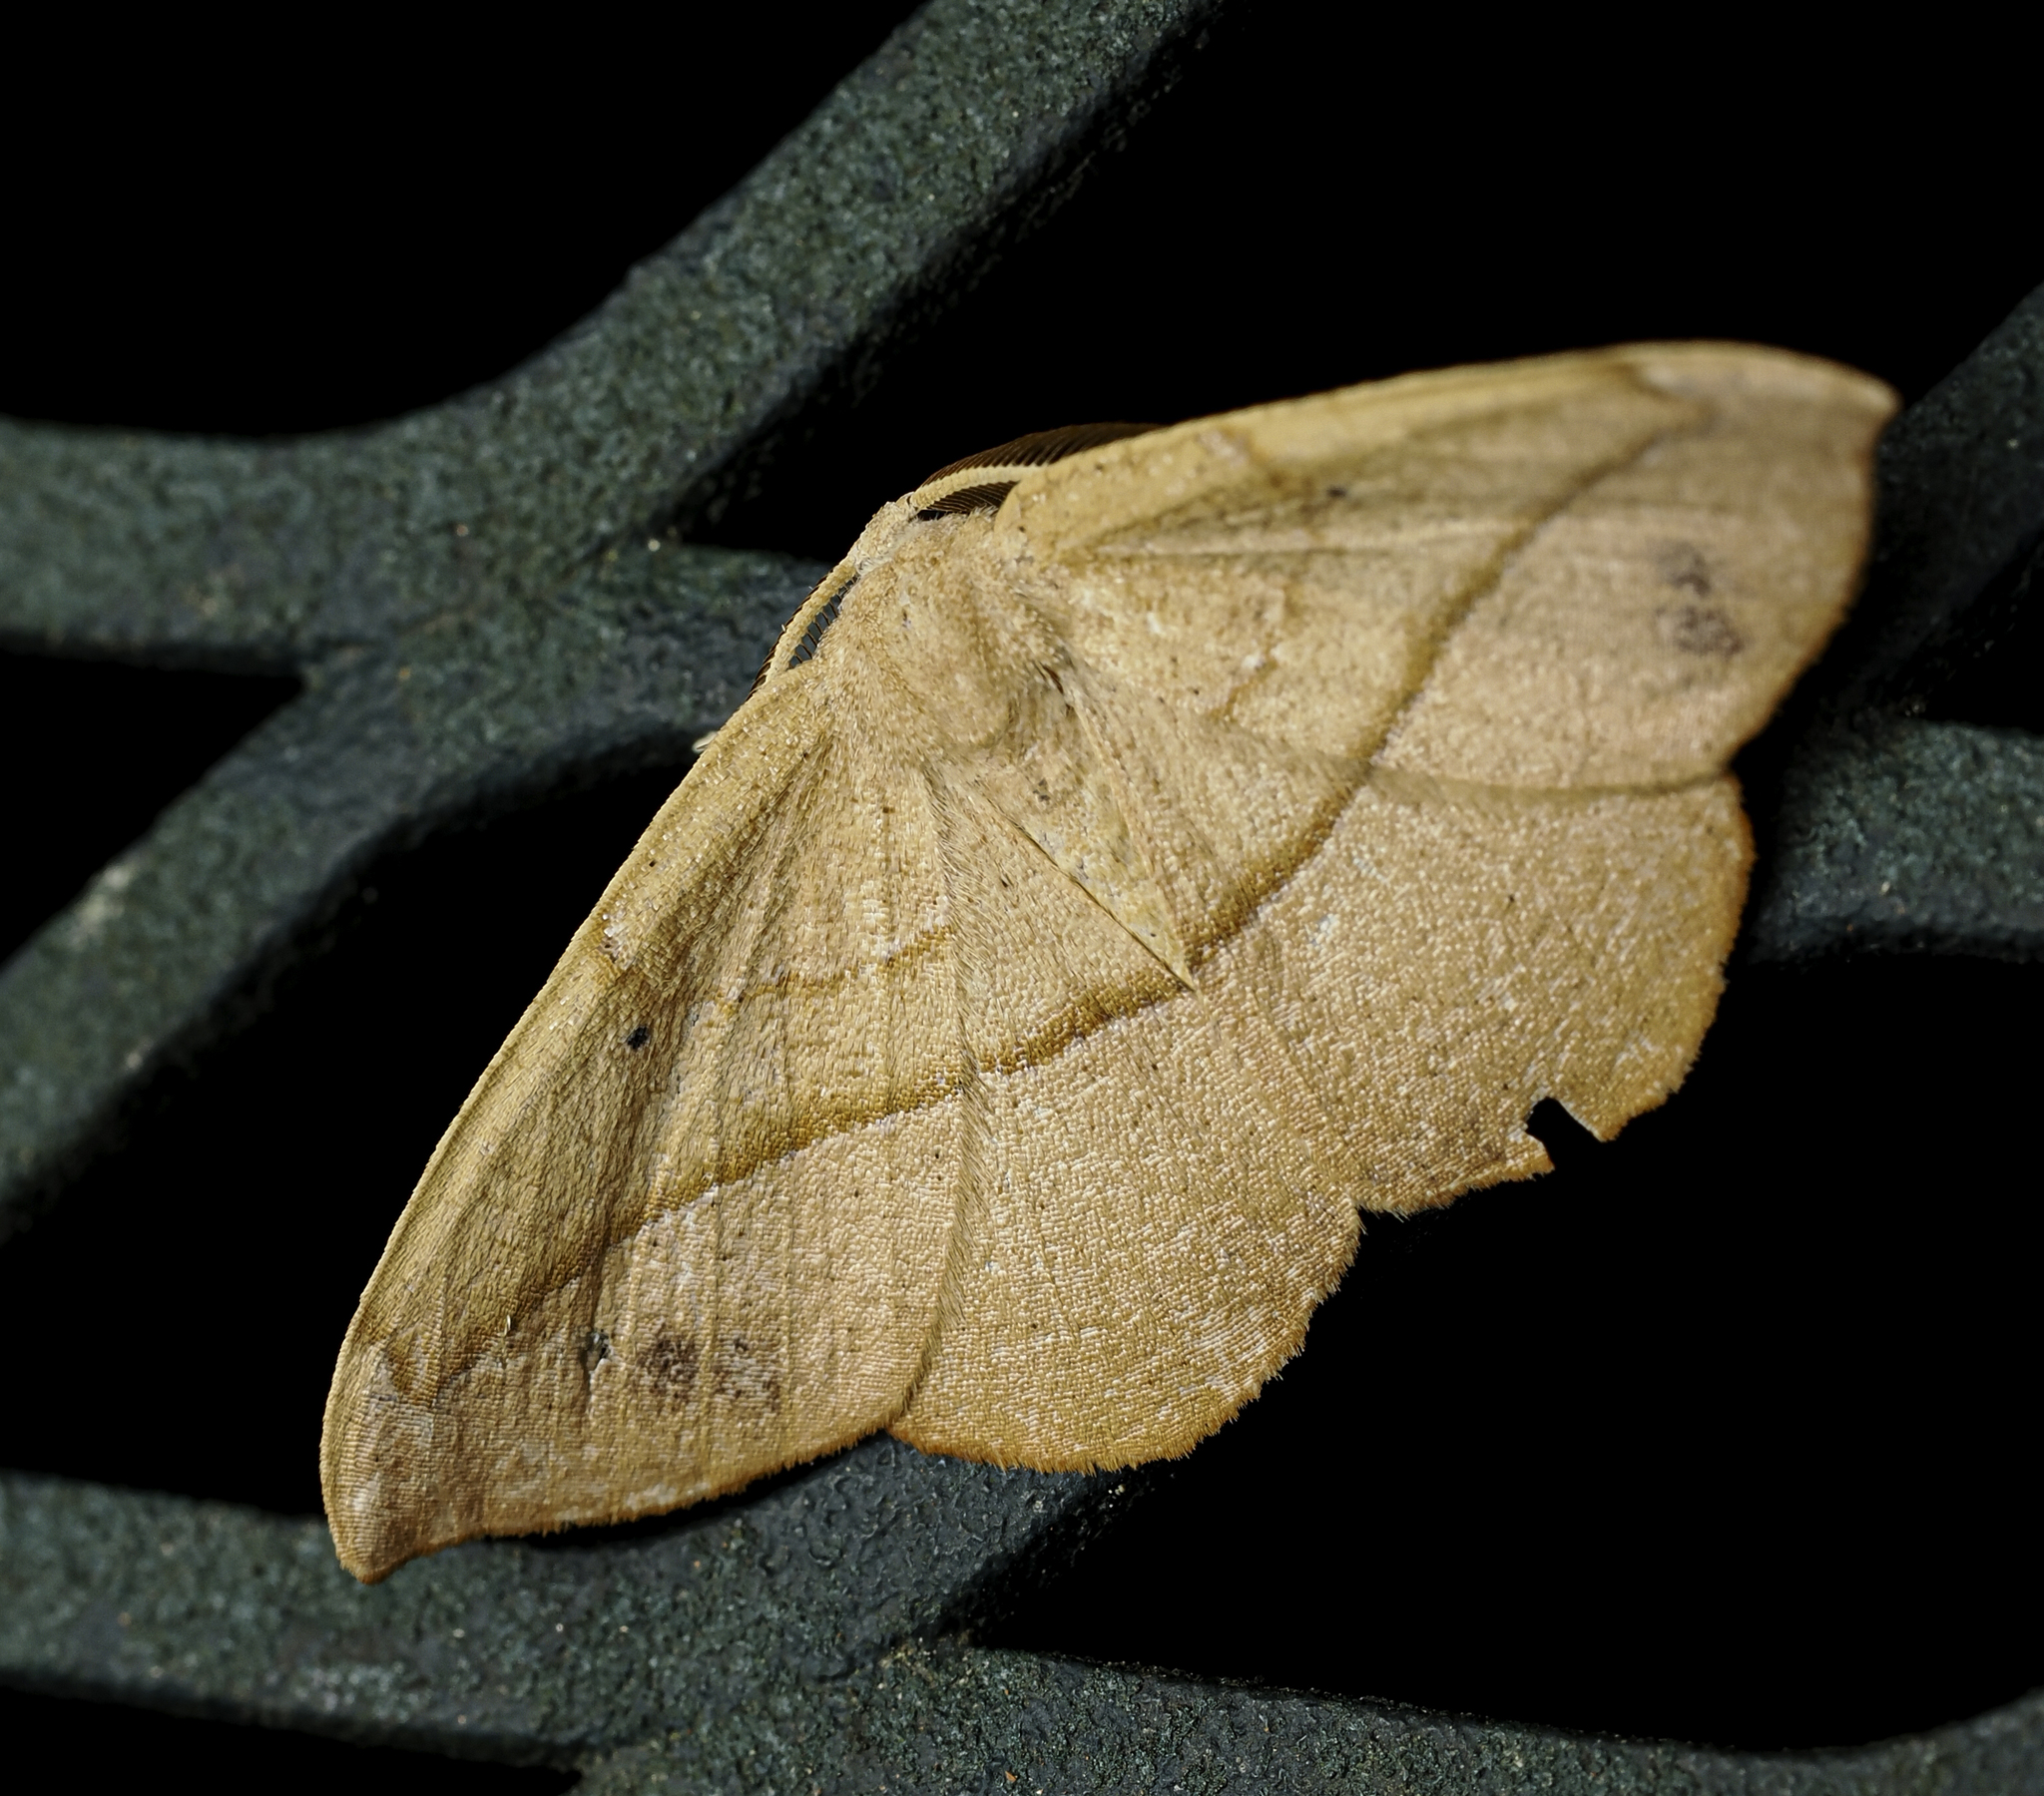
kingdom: Animalia
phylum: Arthropoda
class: Insecta
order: Lepidoptera
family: Geometridae
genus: Patalene
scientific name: Patalene olyzonaria
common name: Juniper geometer moth
